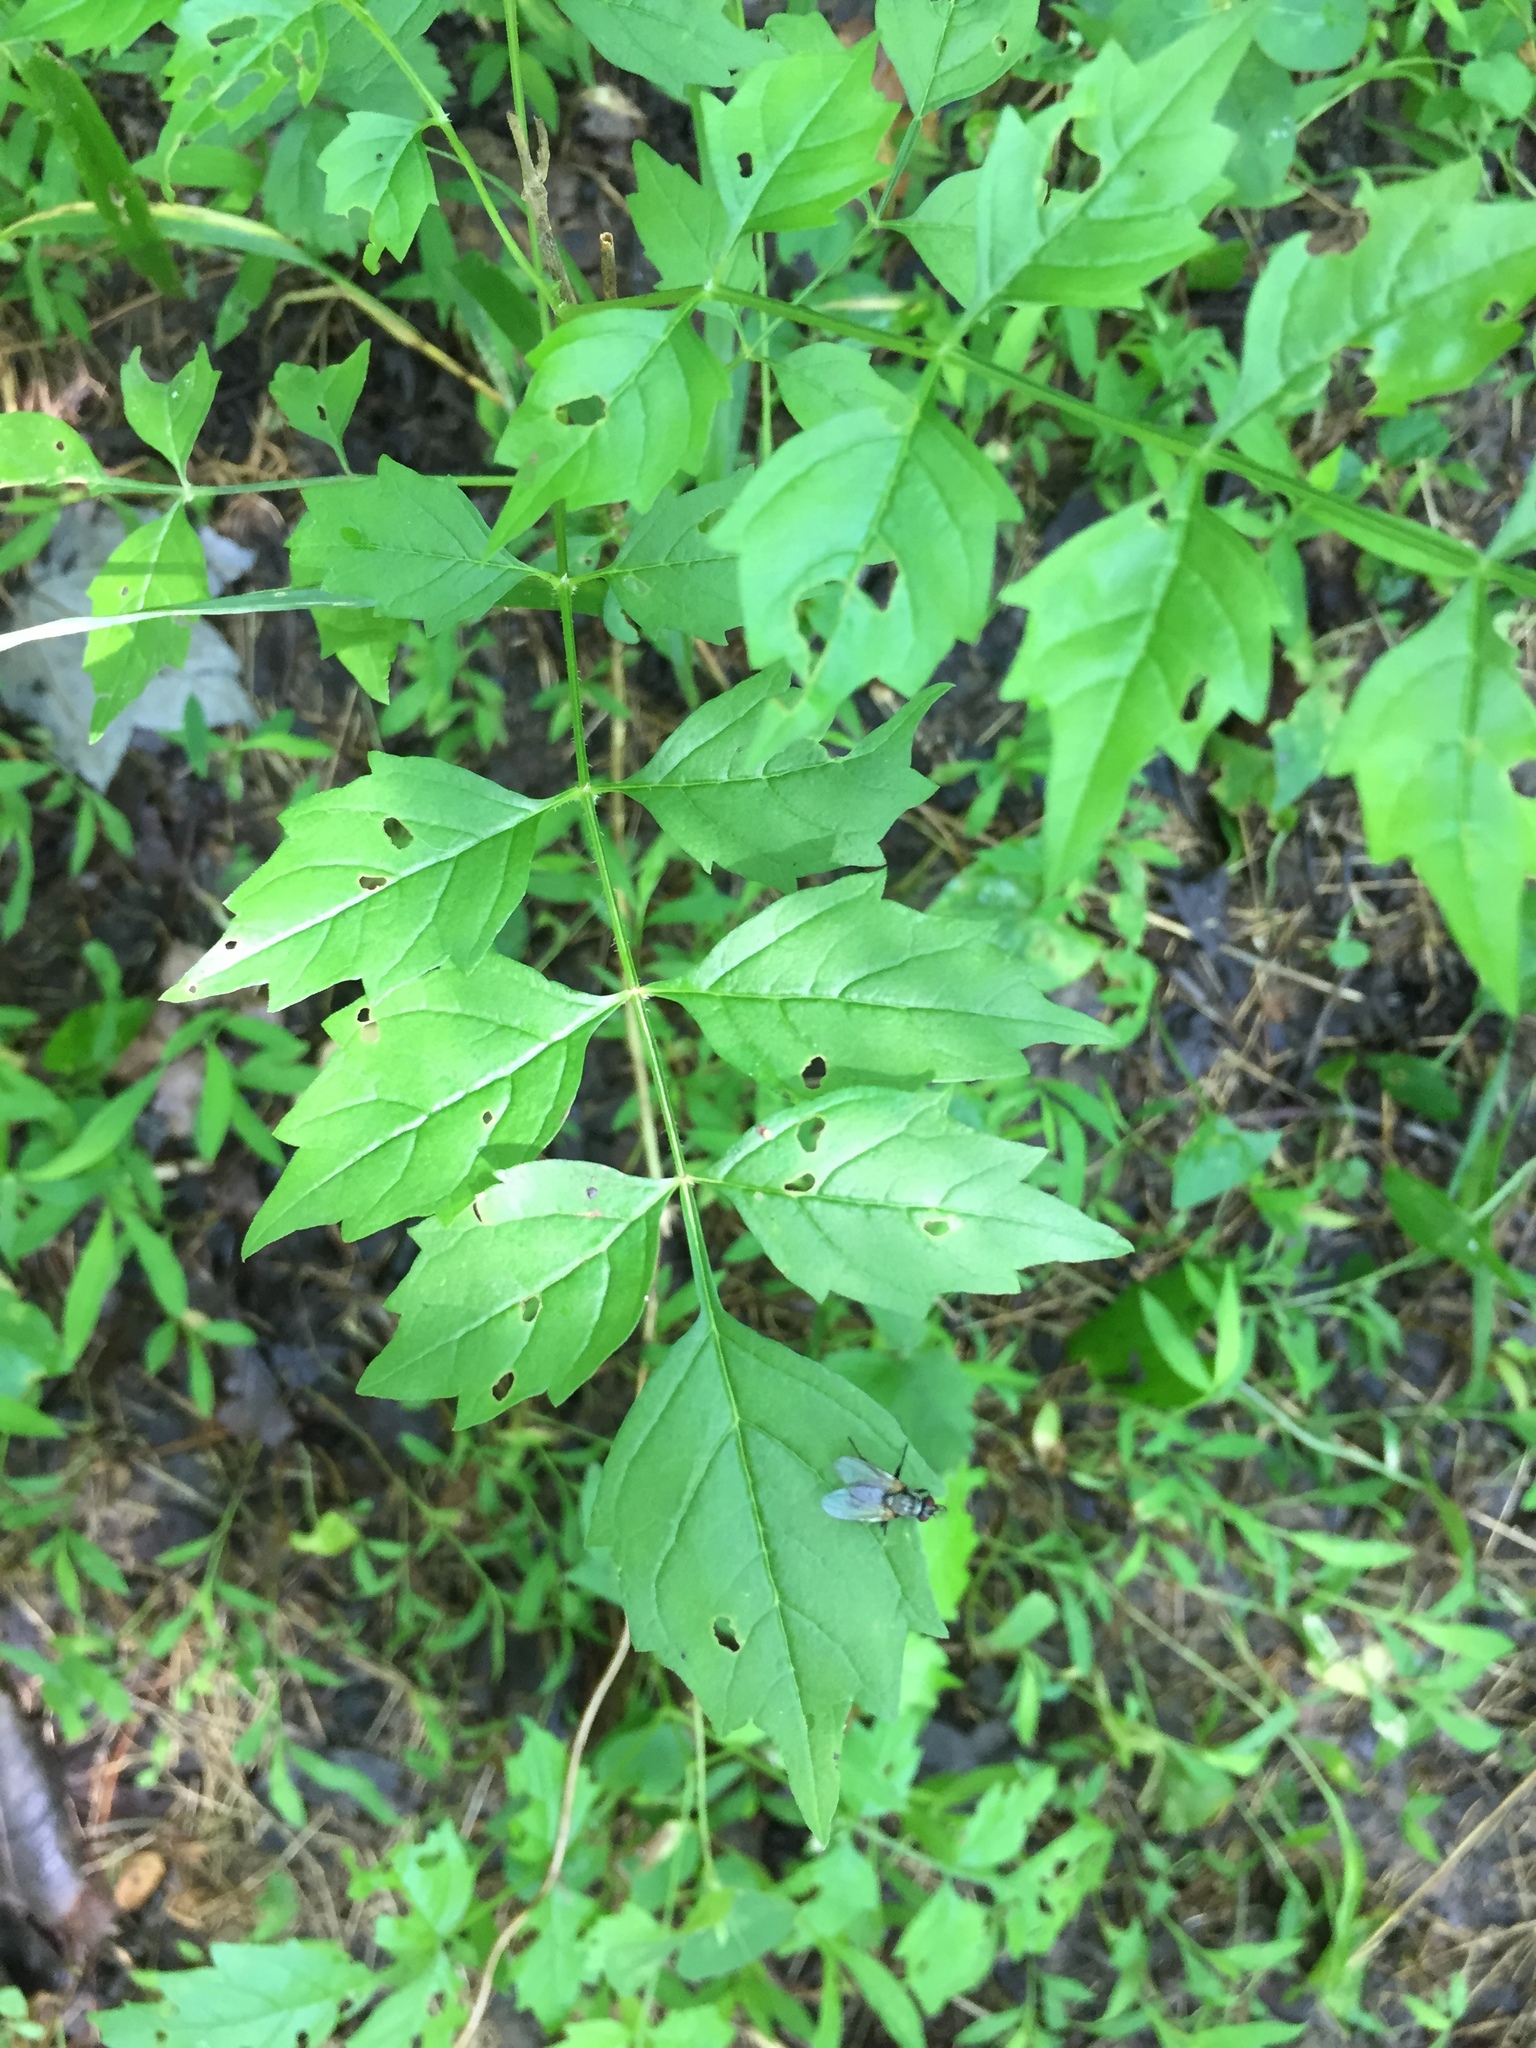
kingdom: Plantae
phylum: Tracheophyta
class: Magnoliopsida
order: Lamiales
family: Bignoniaceae
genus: Campsis
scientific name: Campsis radicans
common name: Trumpet-creeper
